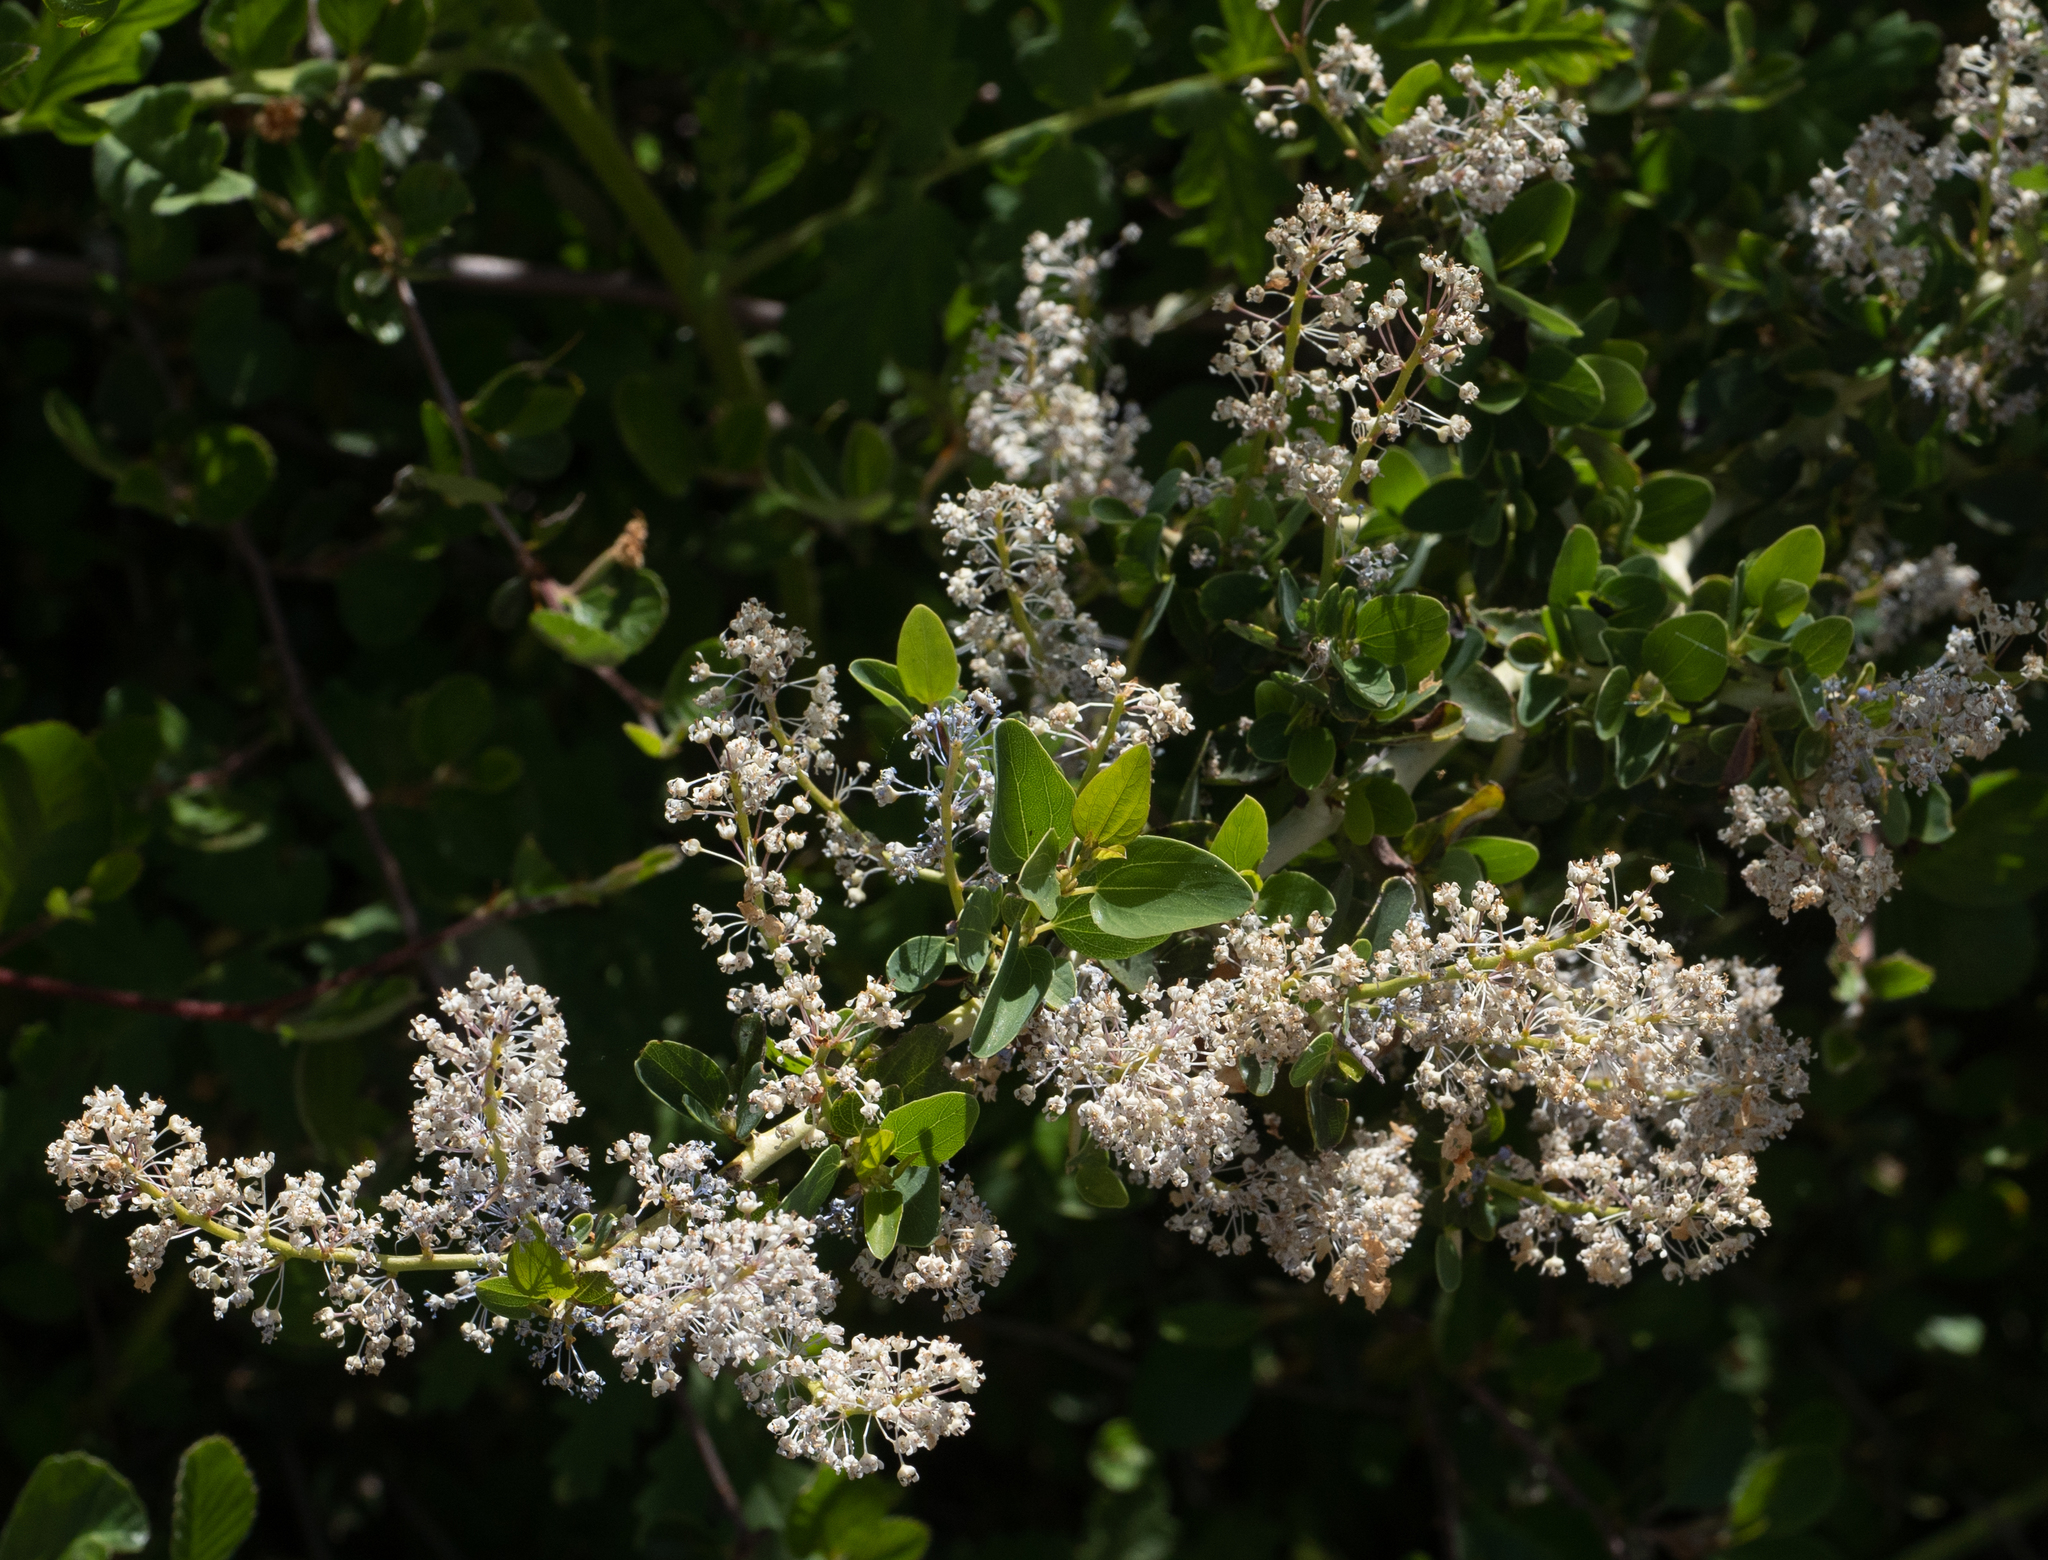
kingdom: Plantae
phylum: Tracheophyta
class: Magnoliopsida
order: Rosales
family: Rhamnaceae
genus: Ceanothus
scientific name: Ceanothus leucodermis
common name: Chaparral whitethorn
